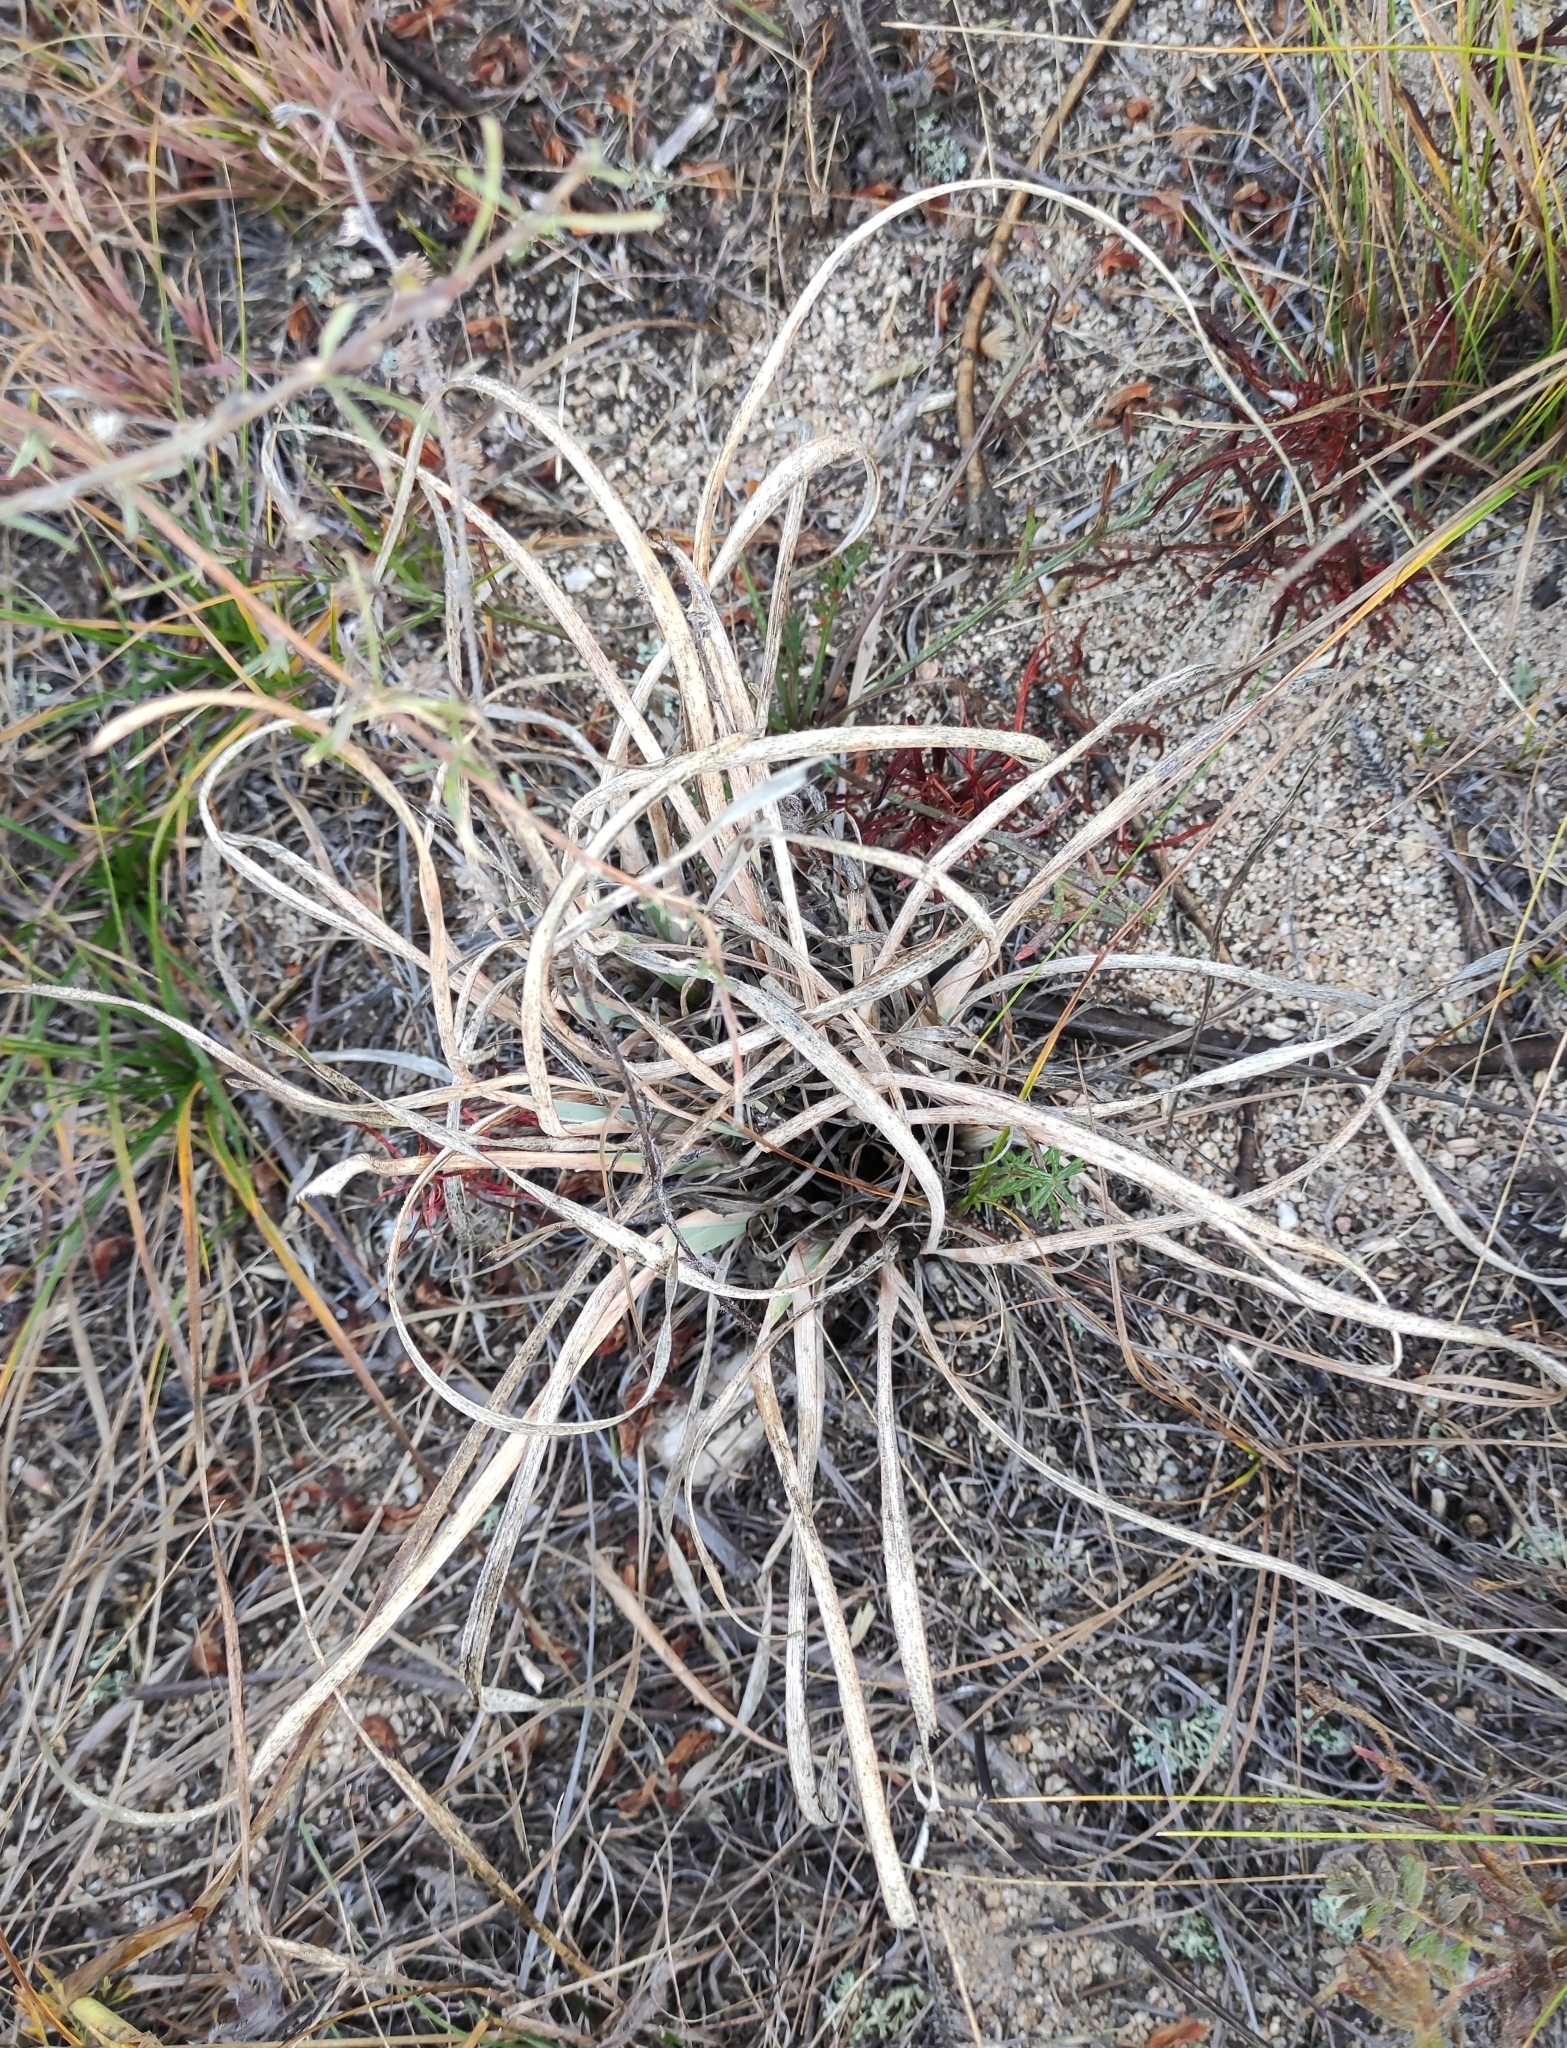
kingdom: Plantae
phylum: Tracheophyta
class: Liliopsida
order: Asparagales
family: Iridaceae
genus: Iris
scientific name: Iris potaninii
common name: Curl-sheath iris
